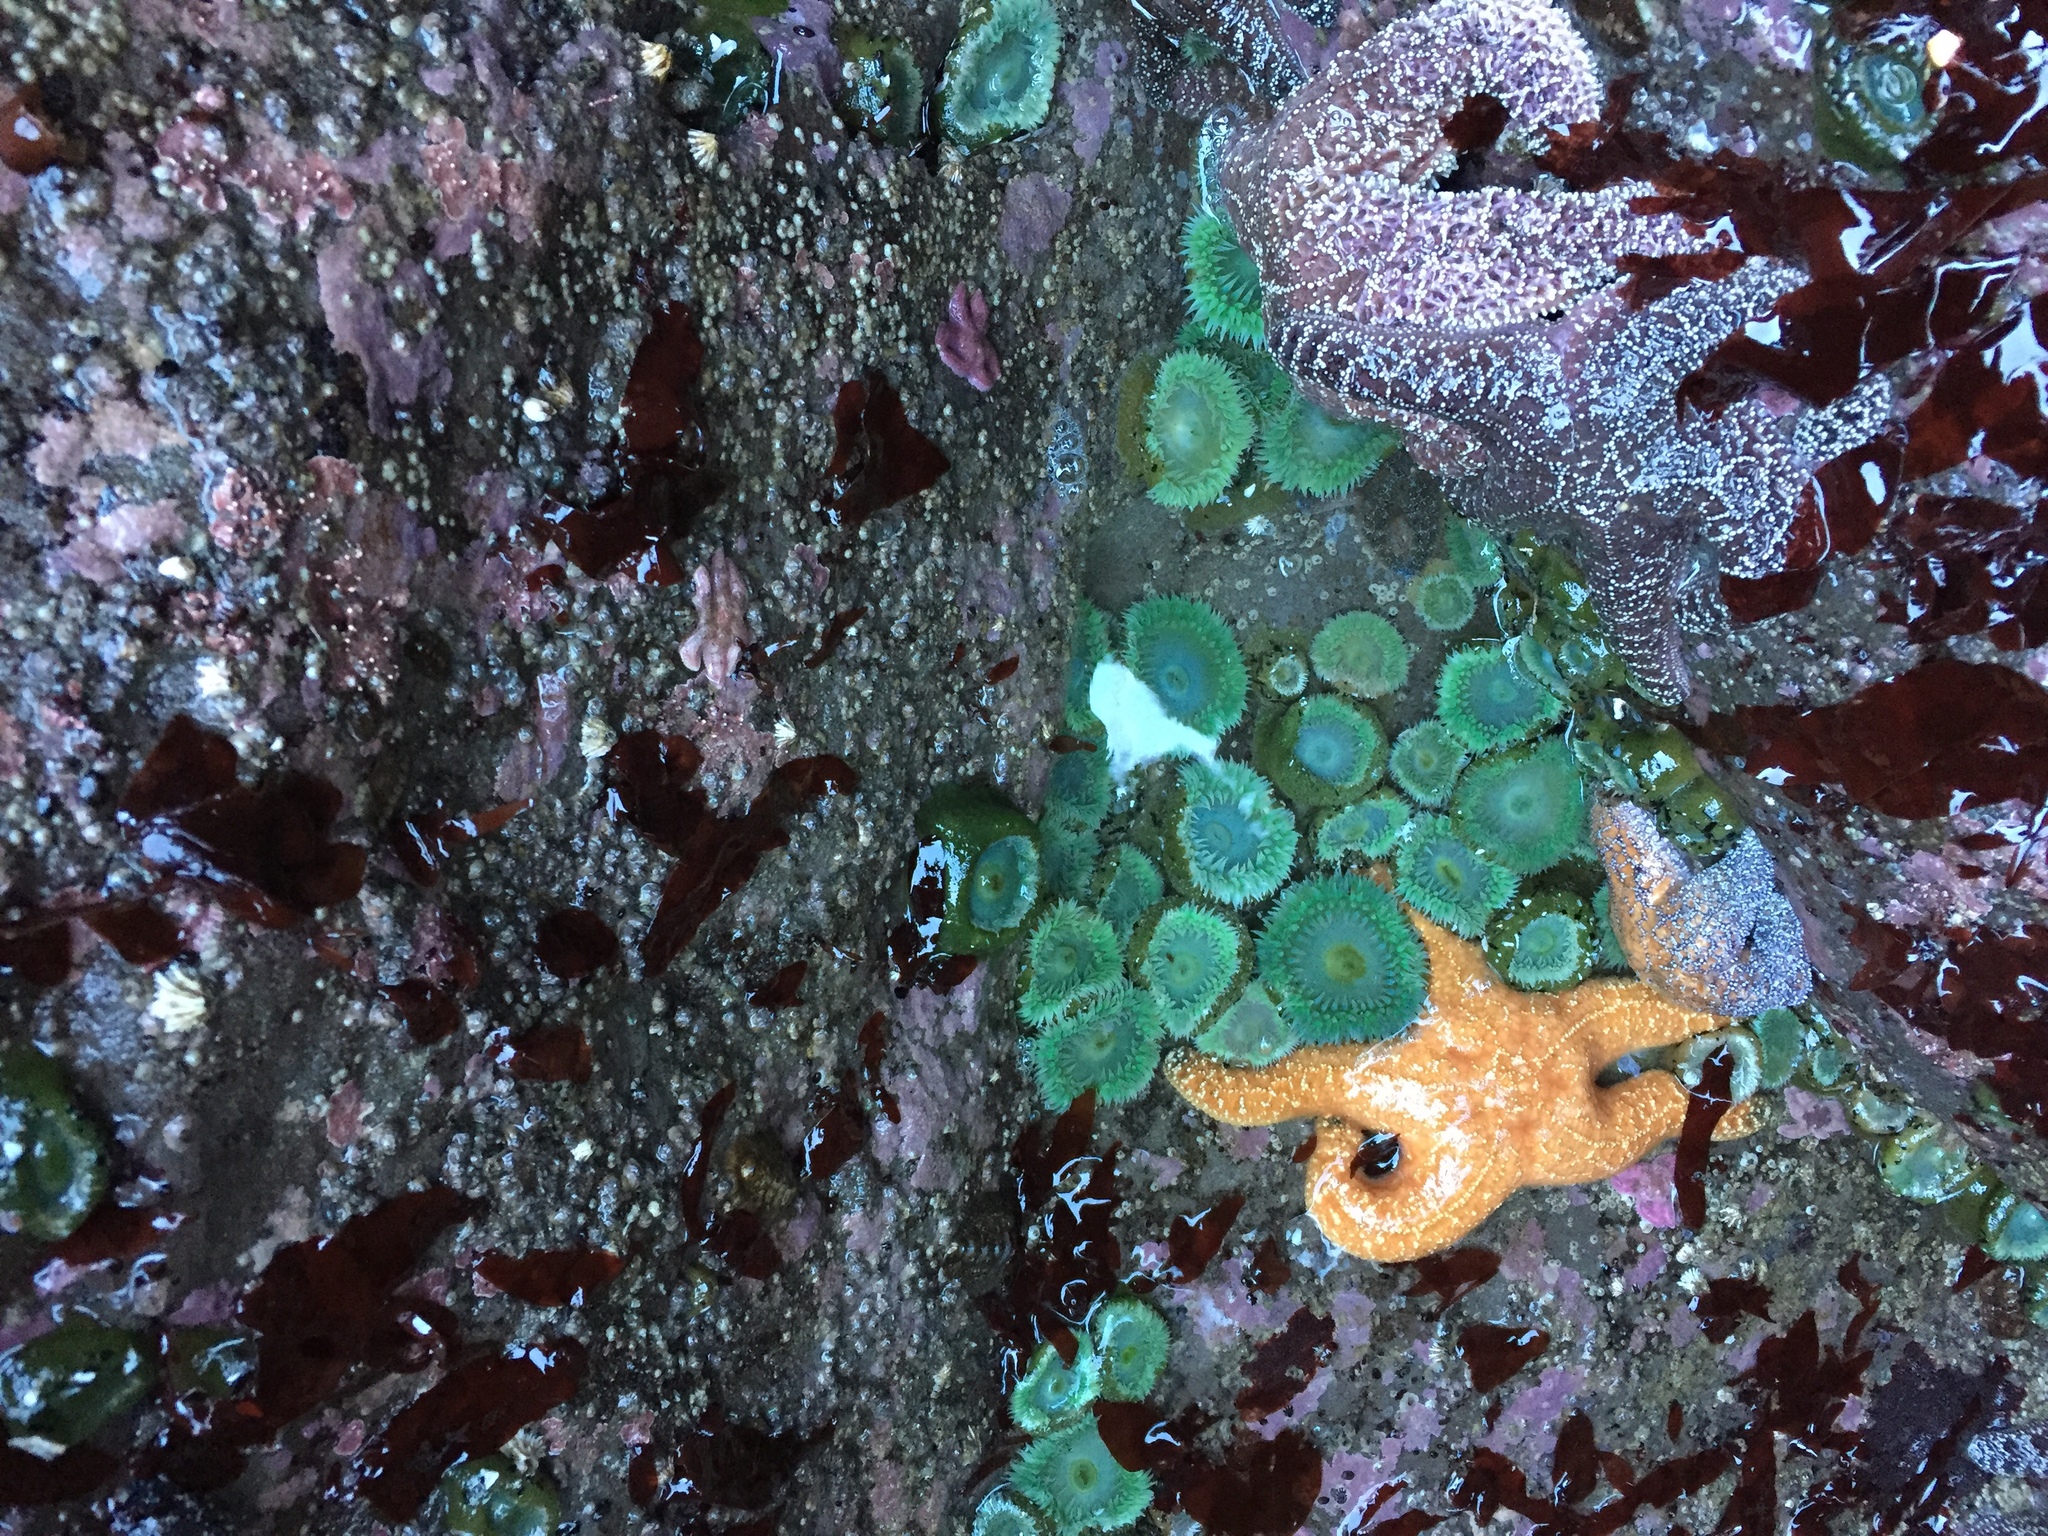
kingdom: Animalia
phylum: Echinodermata
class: Asteroidea
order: Forcipulatida
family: Asteriidae
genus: Pisaster
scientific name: Pisaster ochraceus
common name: Ochre stars
